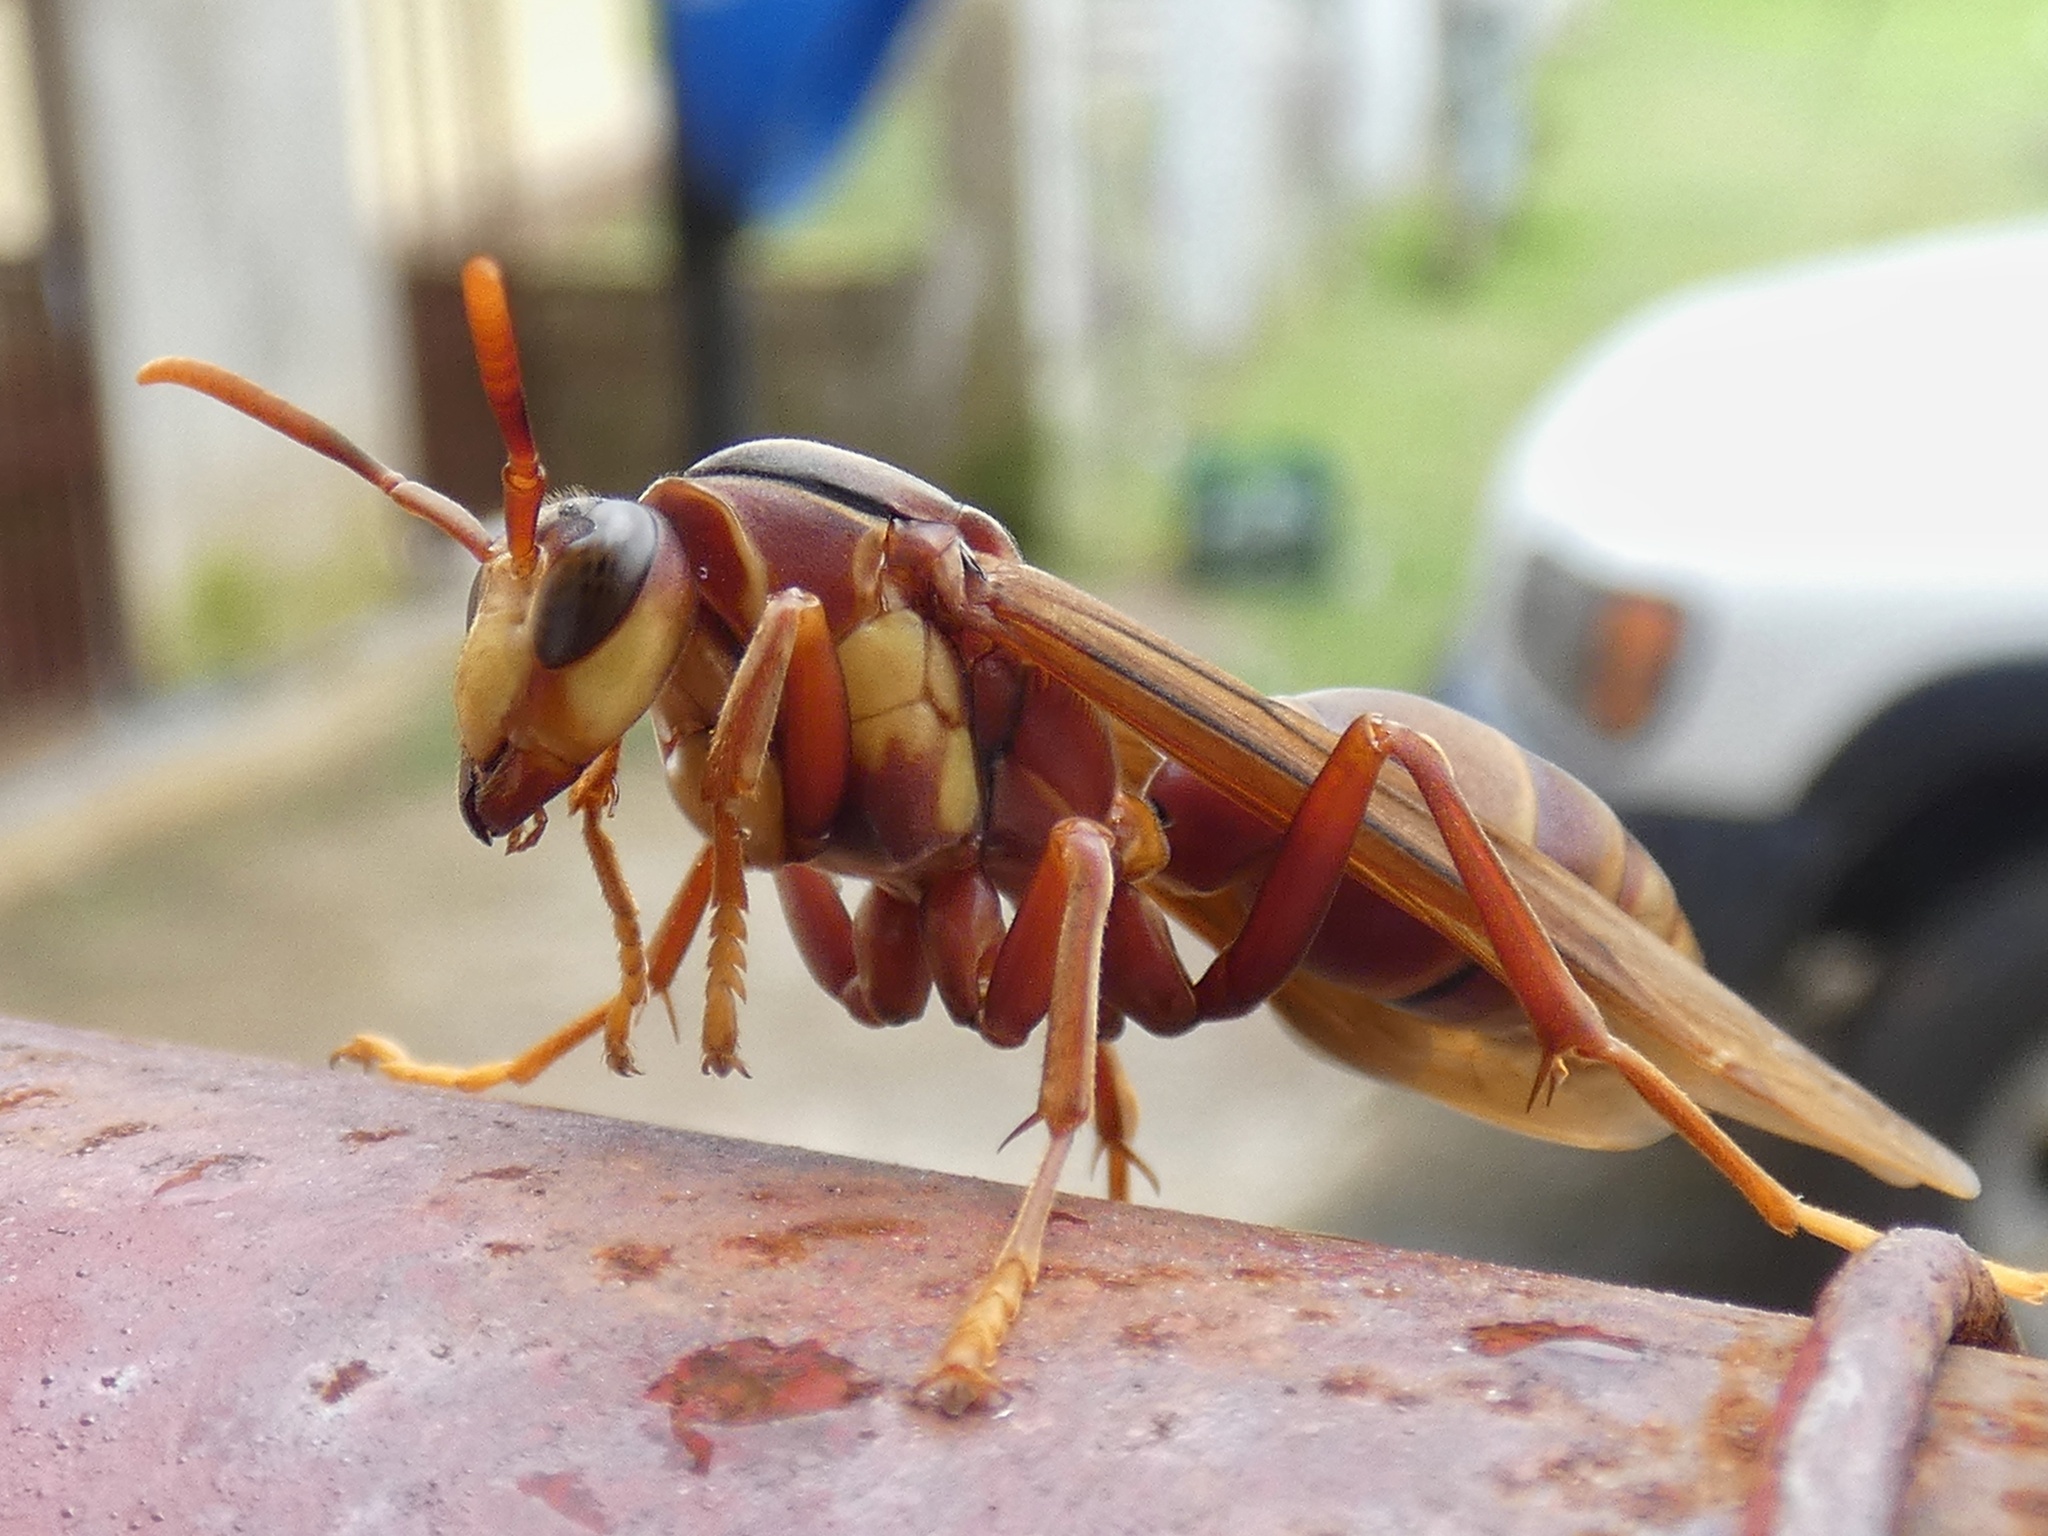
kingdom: Animalia
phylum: Arthropoda
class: Insecta
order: Hymenoptera
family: Eumenidae
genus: Polistes
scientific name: Polistes carnifex
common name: Paper wasp
